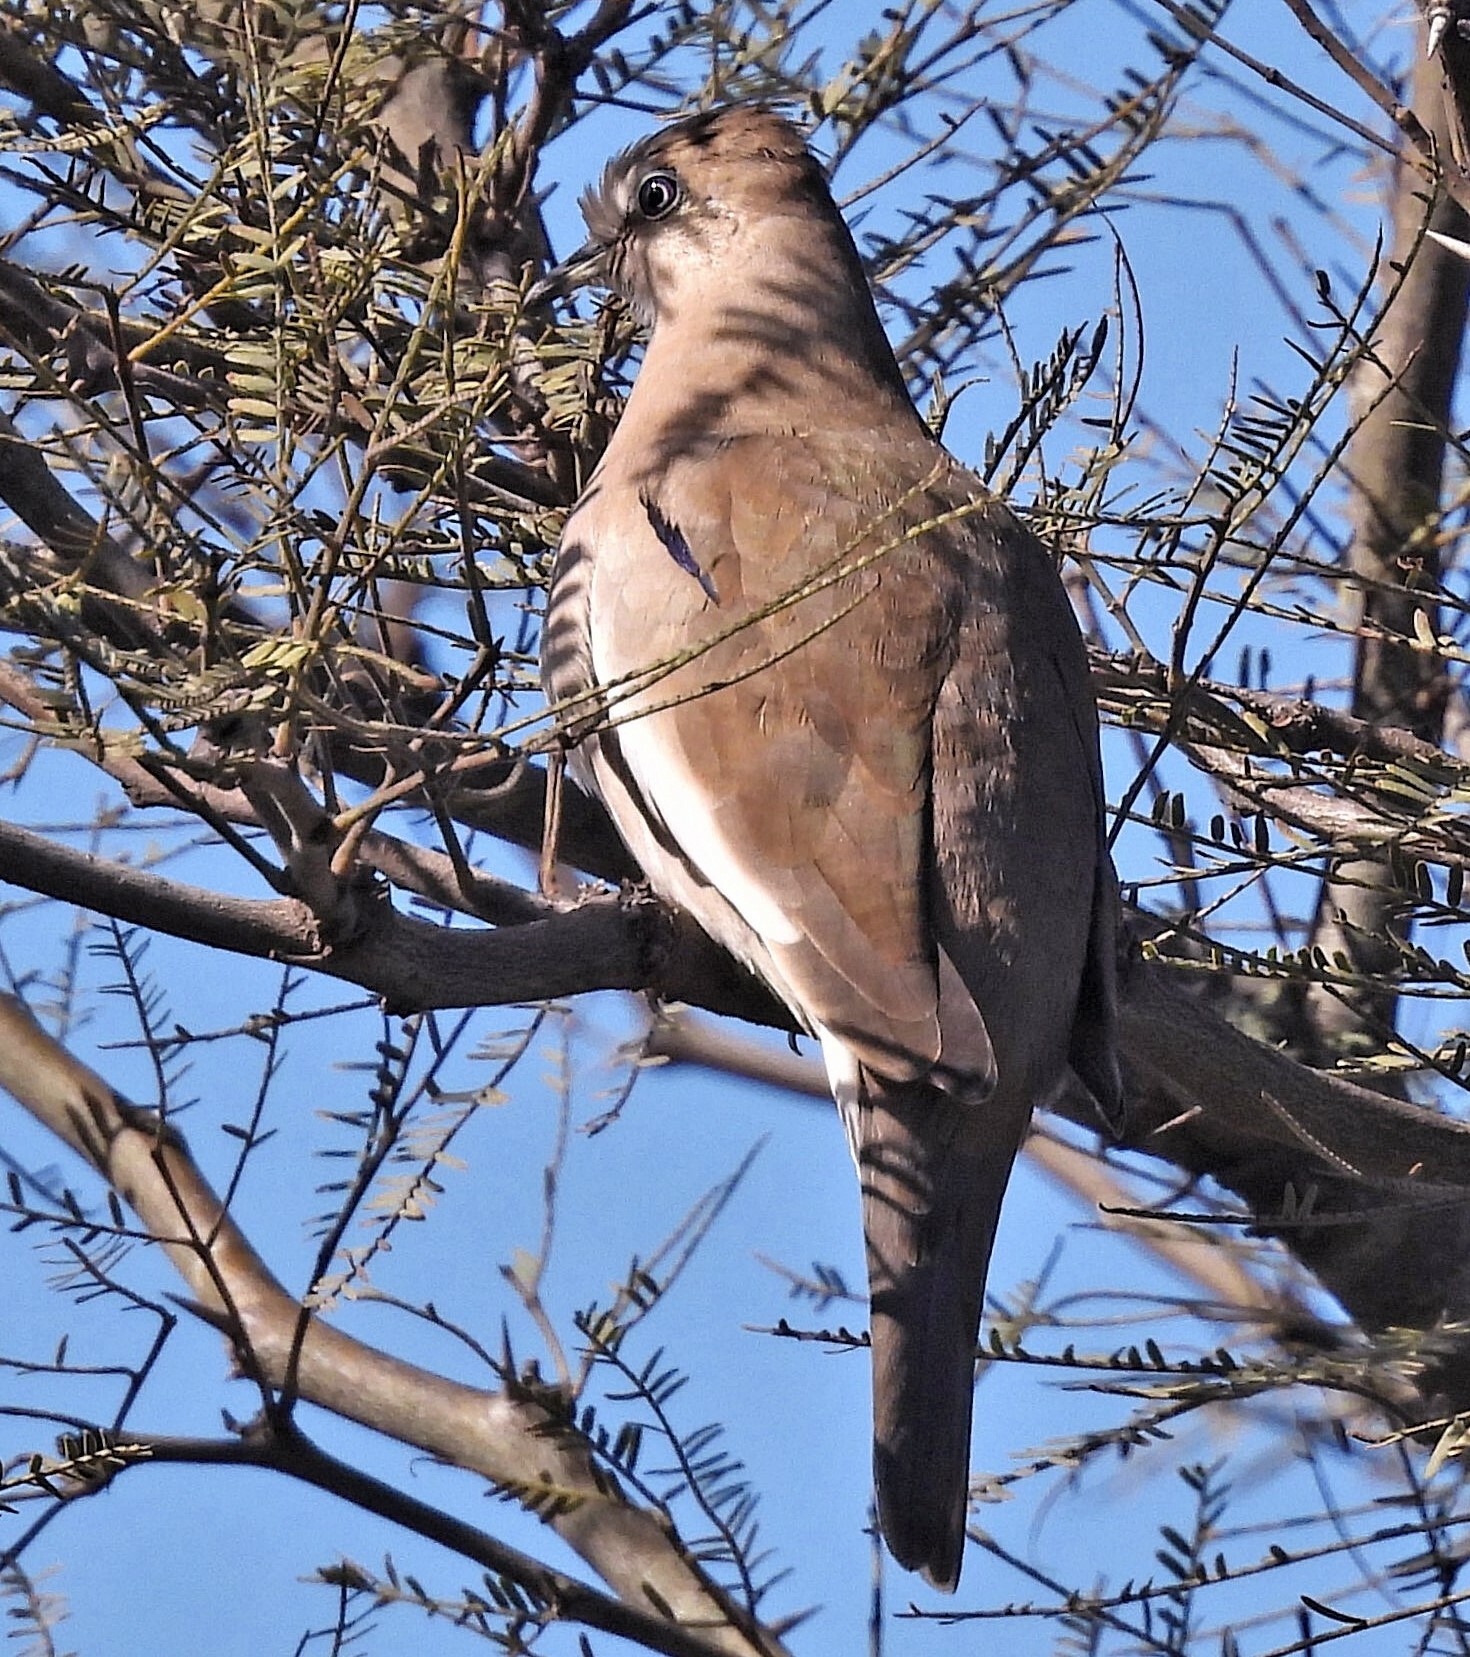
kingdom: Animalia
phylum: Chordata
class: Aves
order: Columbiformes
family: Columbidae
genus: Columbina
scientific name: Columbina picui
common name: Picui ground dove
